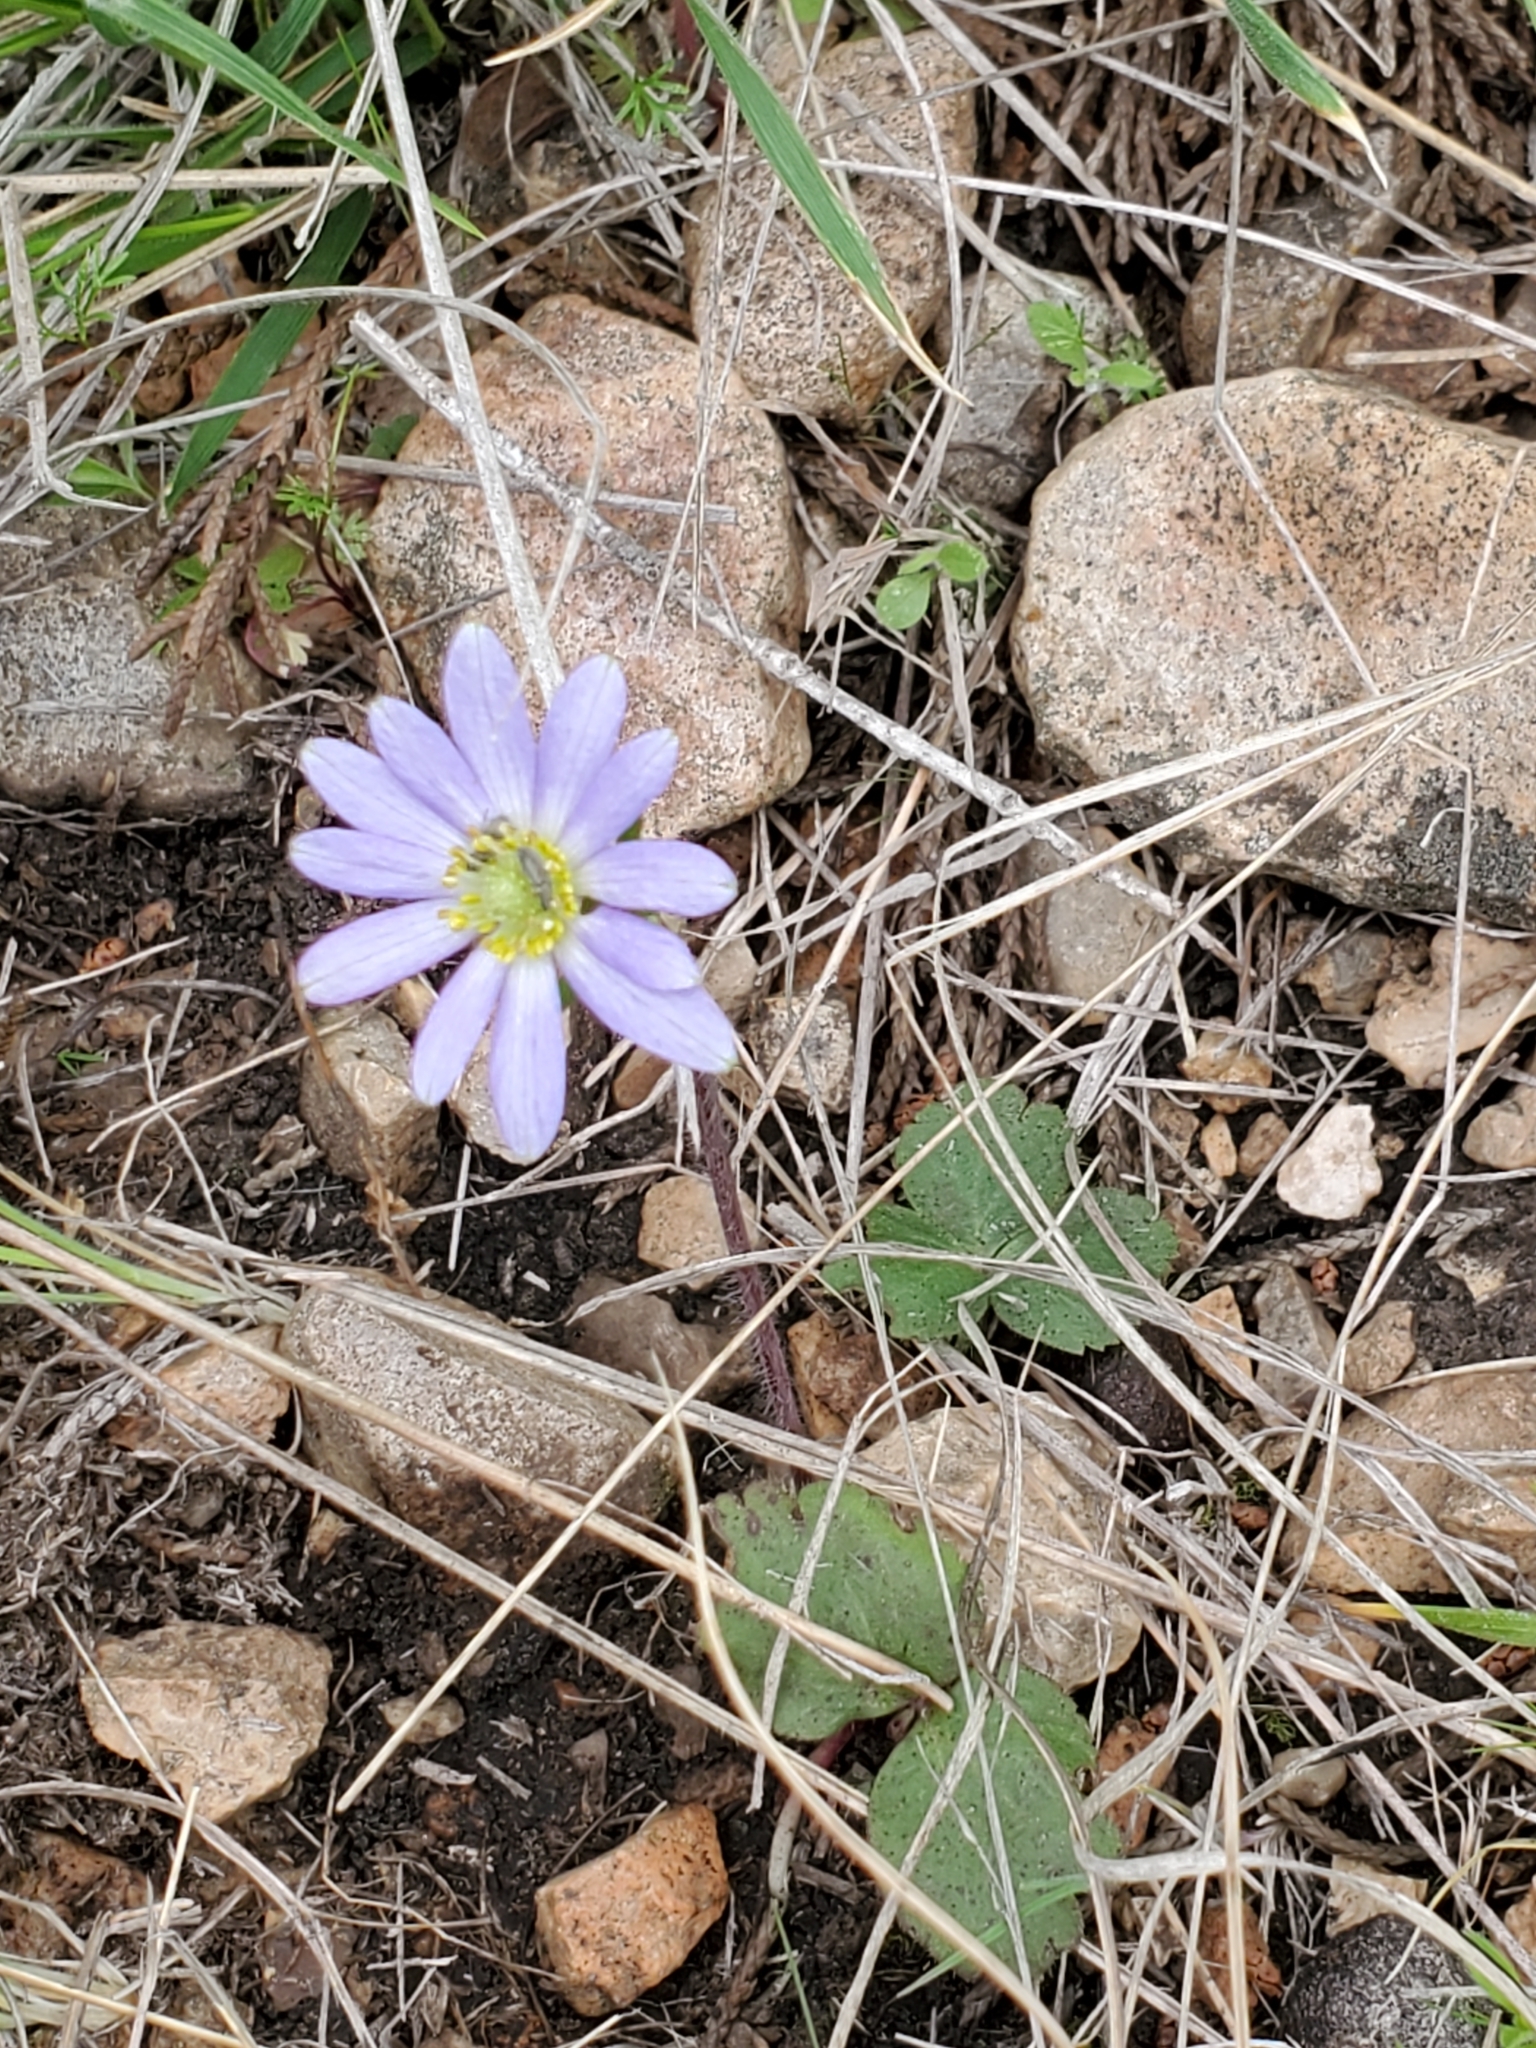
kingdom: Plantae
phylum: Tracheophyta
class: Magnoliopsida
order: Ranunculales
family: Ranunculaceae
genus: Anemone
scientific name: Anemone berlandieri
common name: Ten-petal anemone
